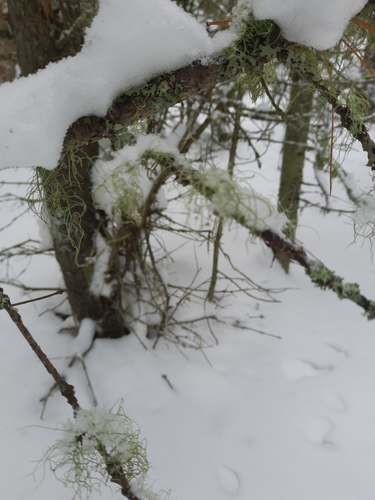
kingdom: Fungi
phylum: Ascomycota
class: Lecanoromycetes
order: Lecanorales
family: Parmeliaceae
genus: Usnea
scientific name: Usnea
